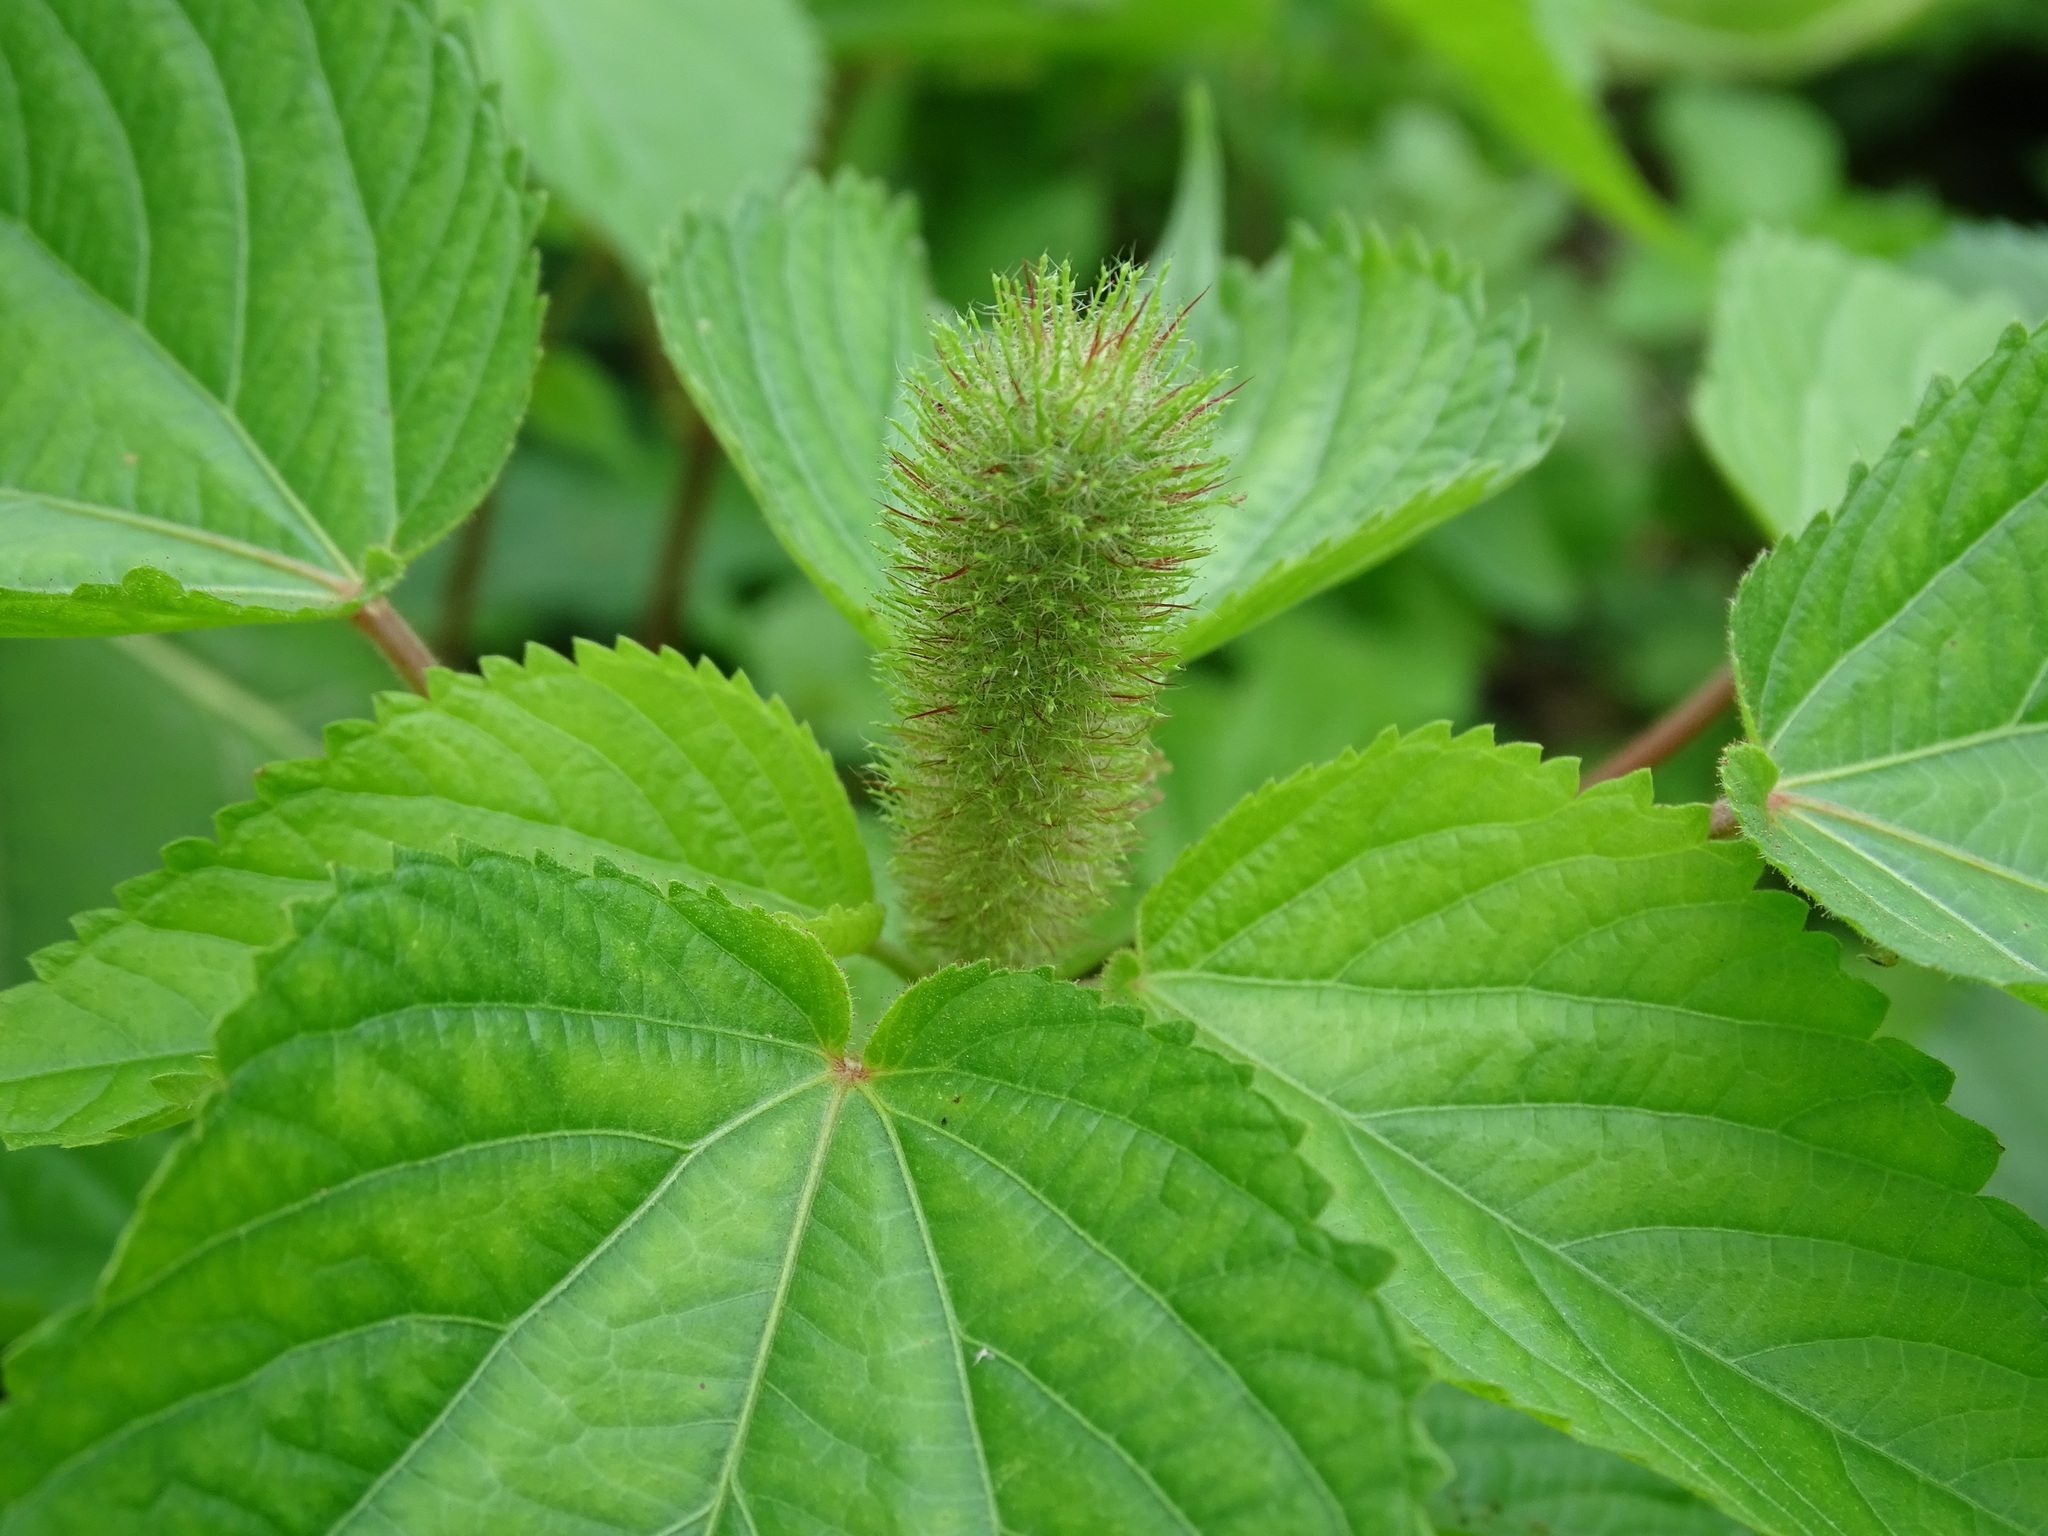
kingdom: Plantae
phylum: Tracheophyta
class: Magnoliopsida
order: Malpighiales
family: Euphorbiaceae
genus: Acalypha
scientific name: Acalypha alopecuroidea
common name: Foxtail copperleaf
